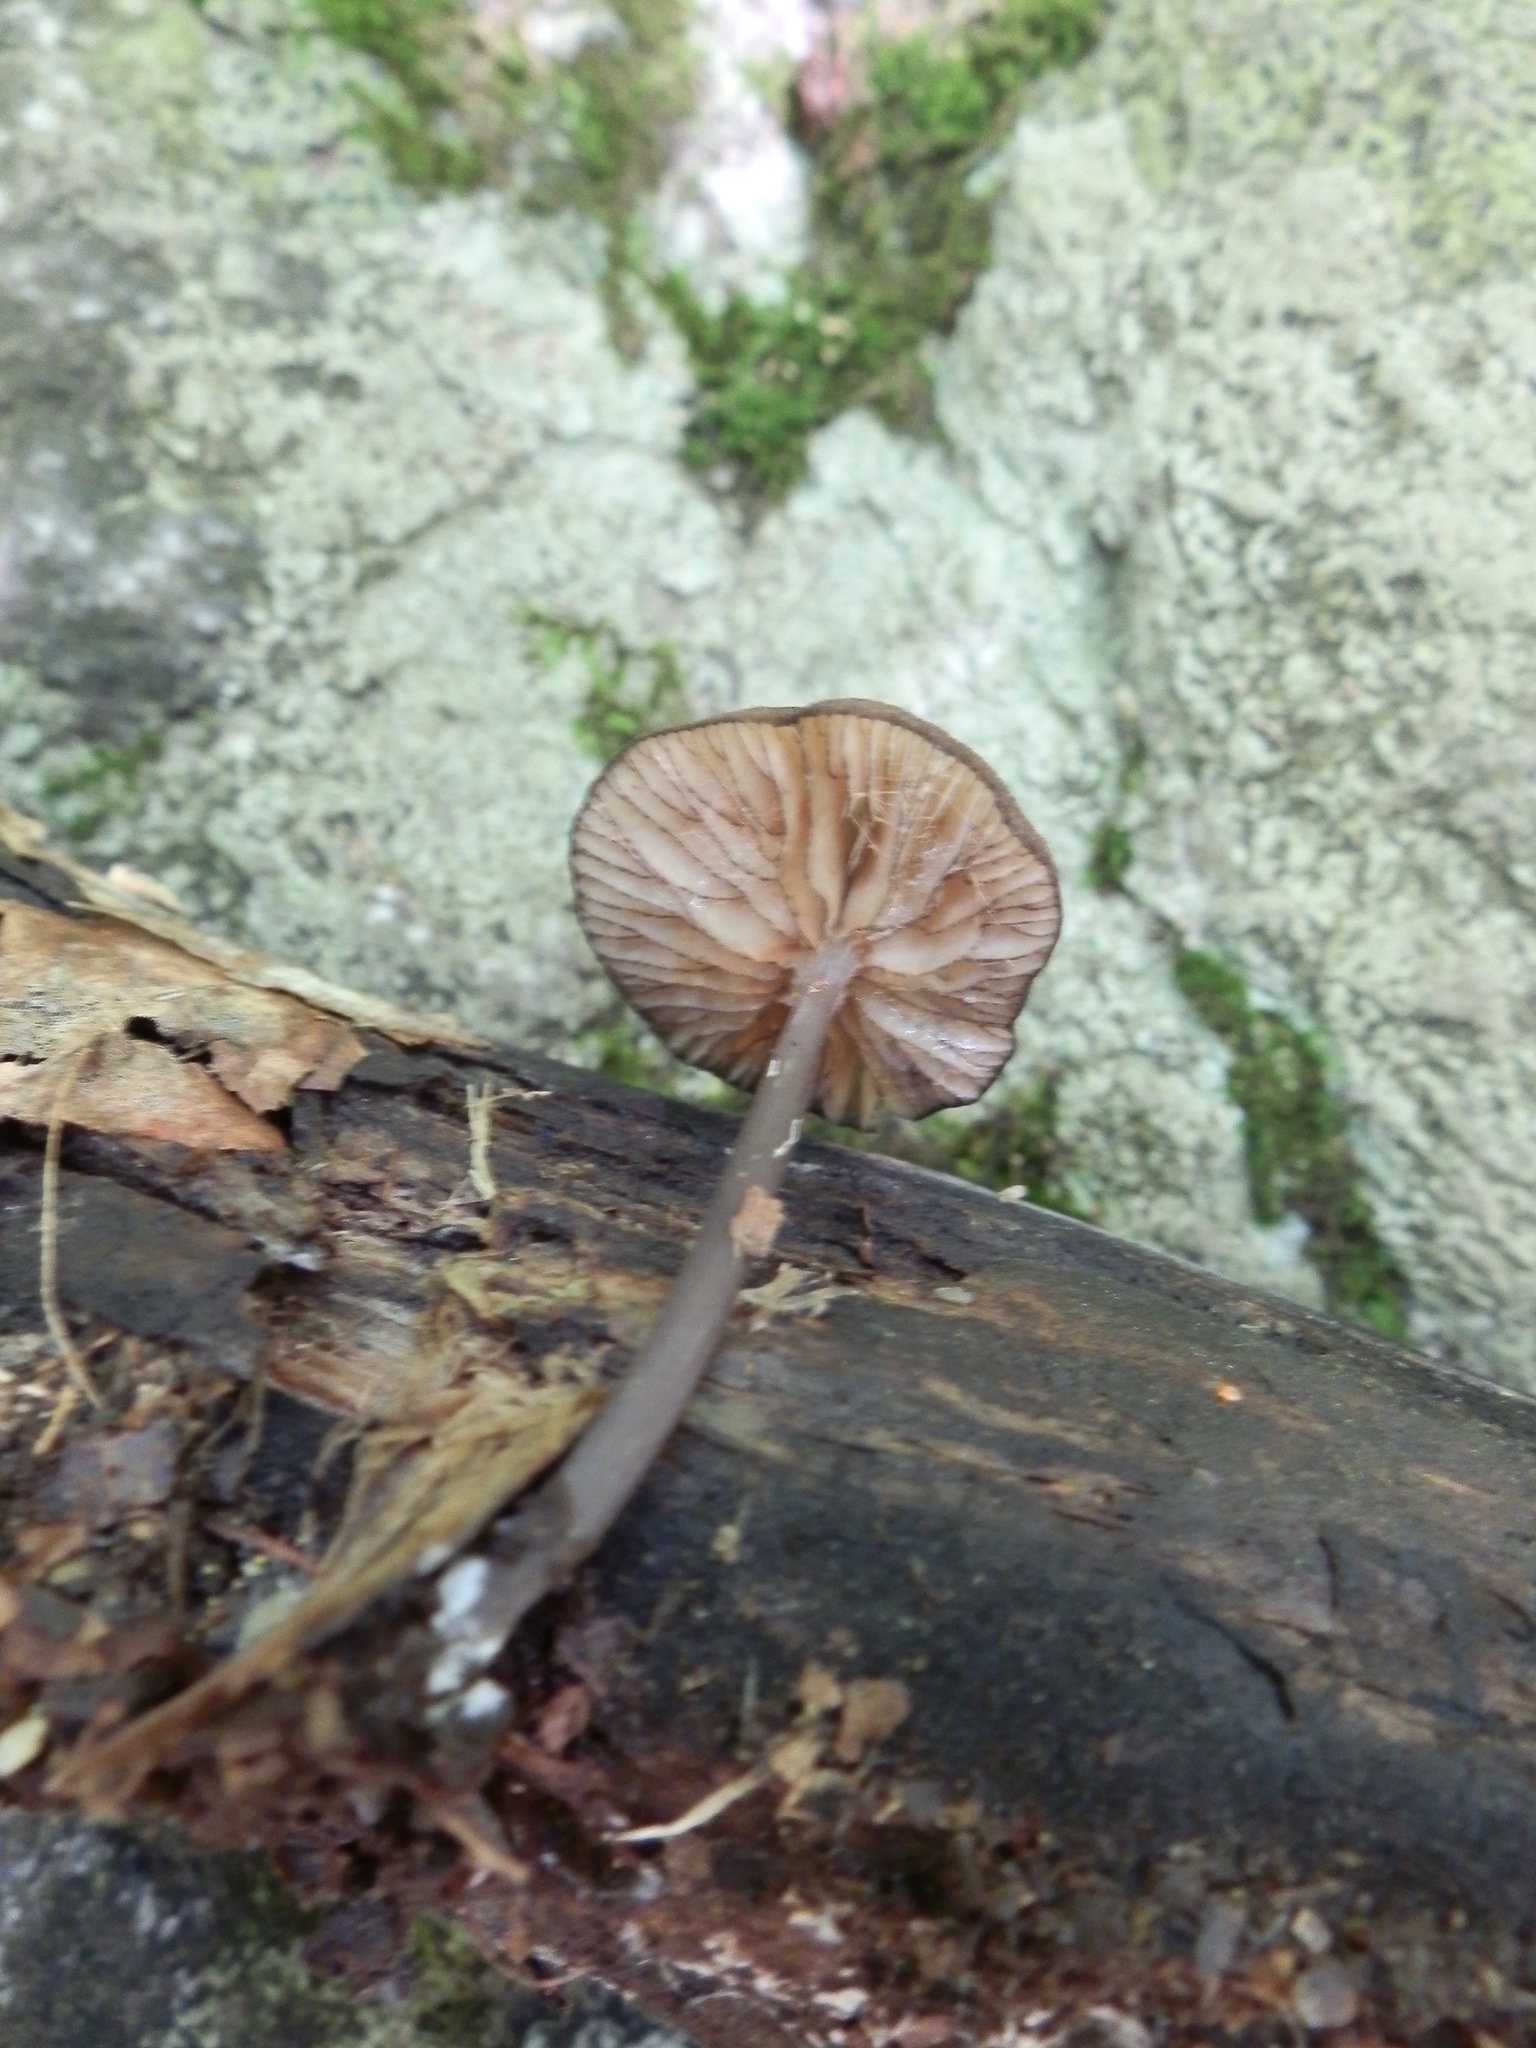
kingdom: Fungi
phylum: Basidiomycota
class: Agaricomycetes
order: Agaricales
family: Entolomataceae
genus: Entoloma
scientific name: Entoloma serrulatum
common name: Blue edge pinkgill
